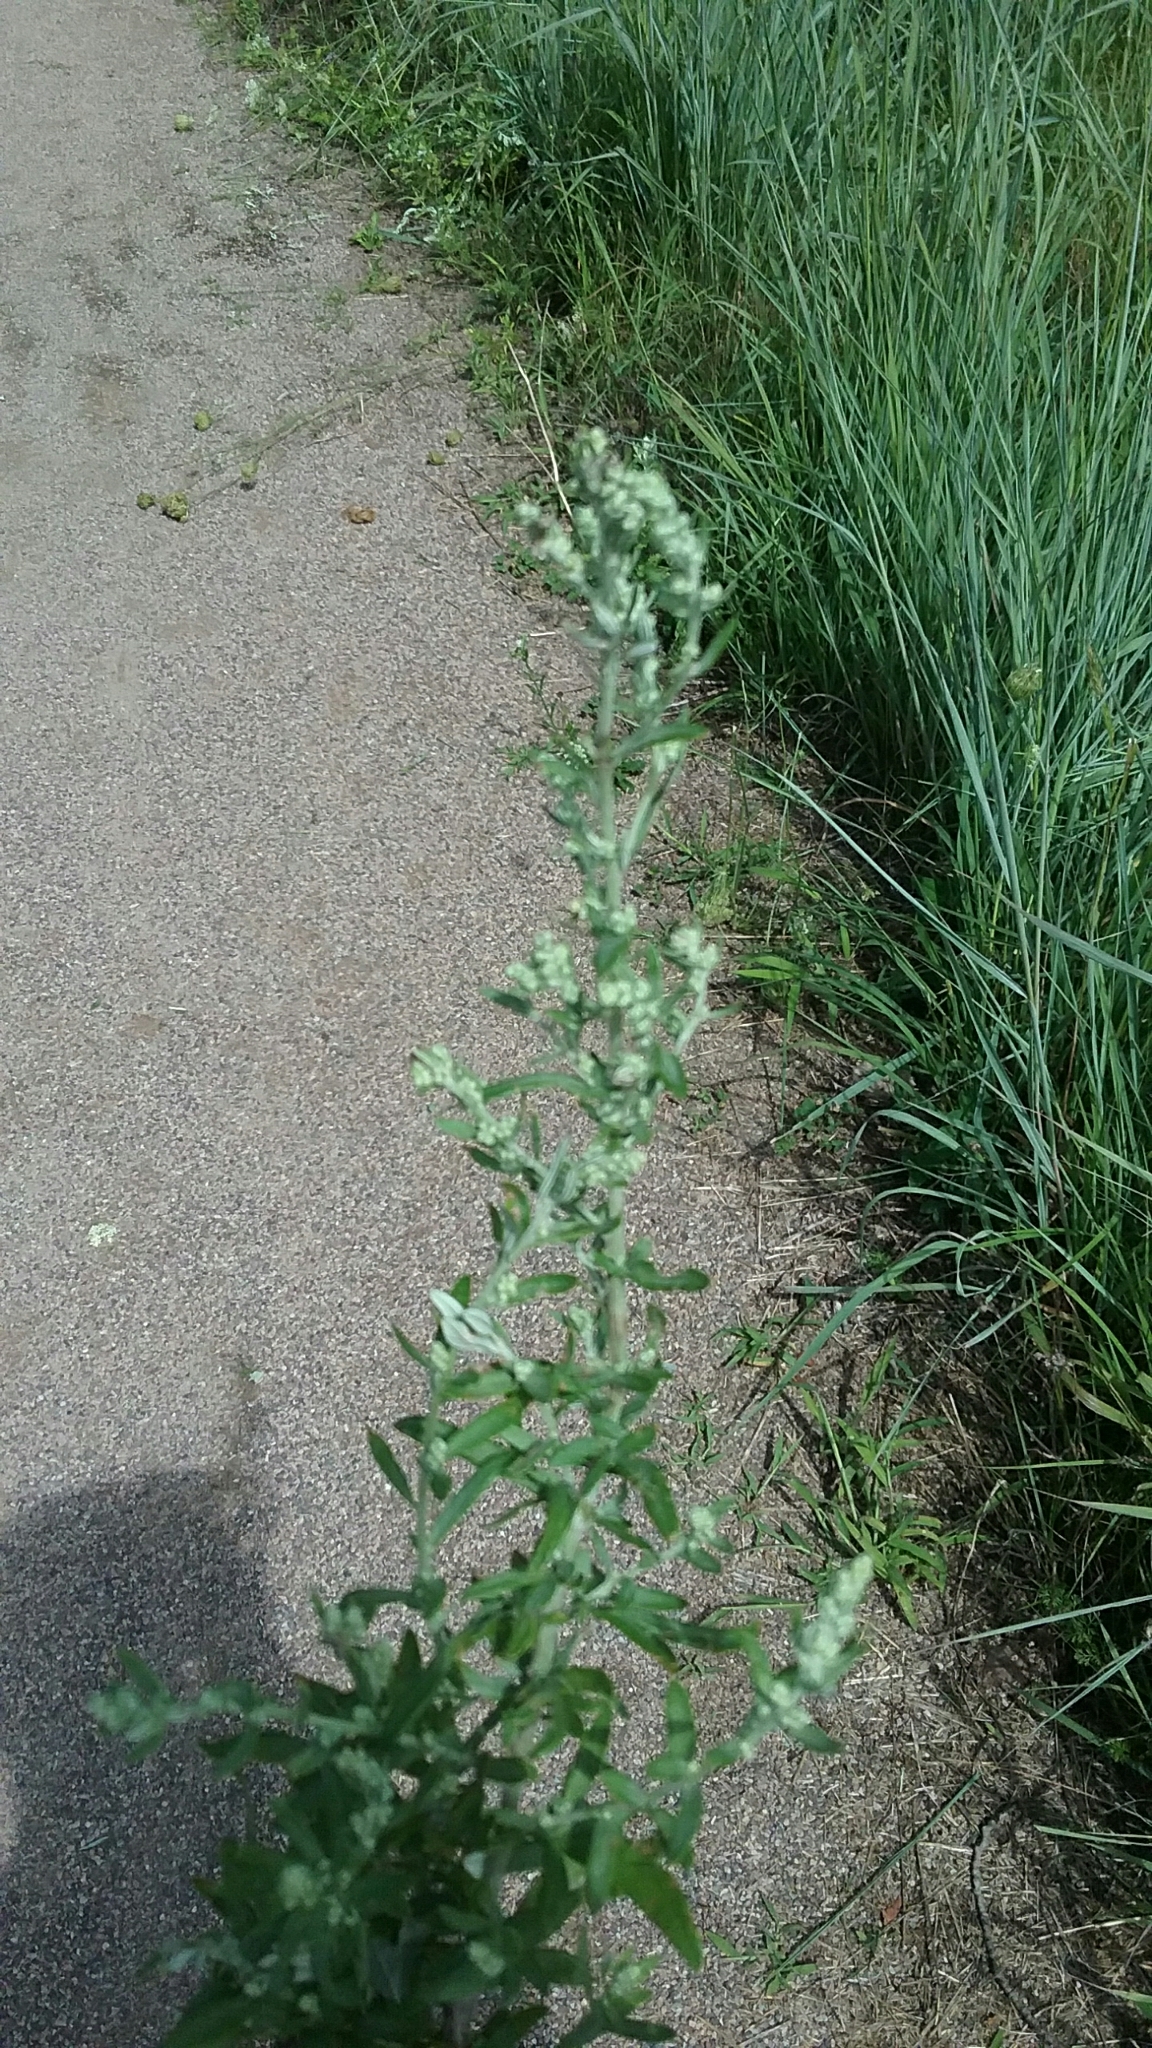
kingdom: Plantae
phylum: Tracheophyta
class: Magnoliopsida
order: Caryophyllales
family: Amaranthaceae
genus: Chenopodium
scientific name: Chenopodium album
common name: Fat-hen
